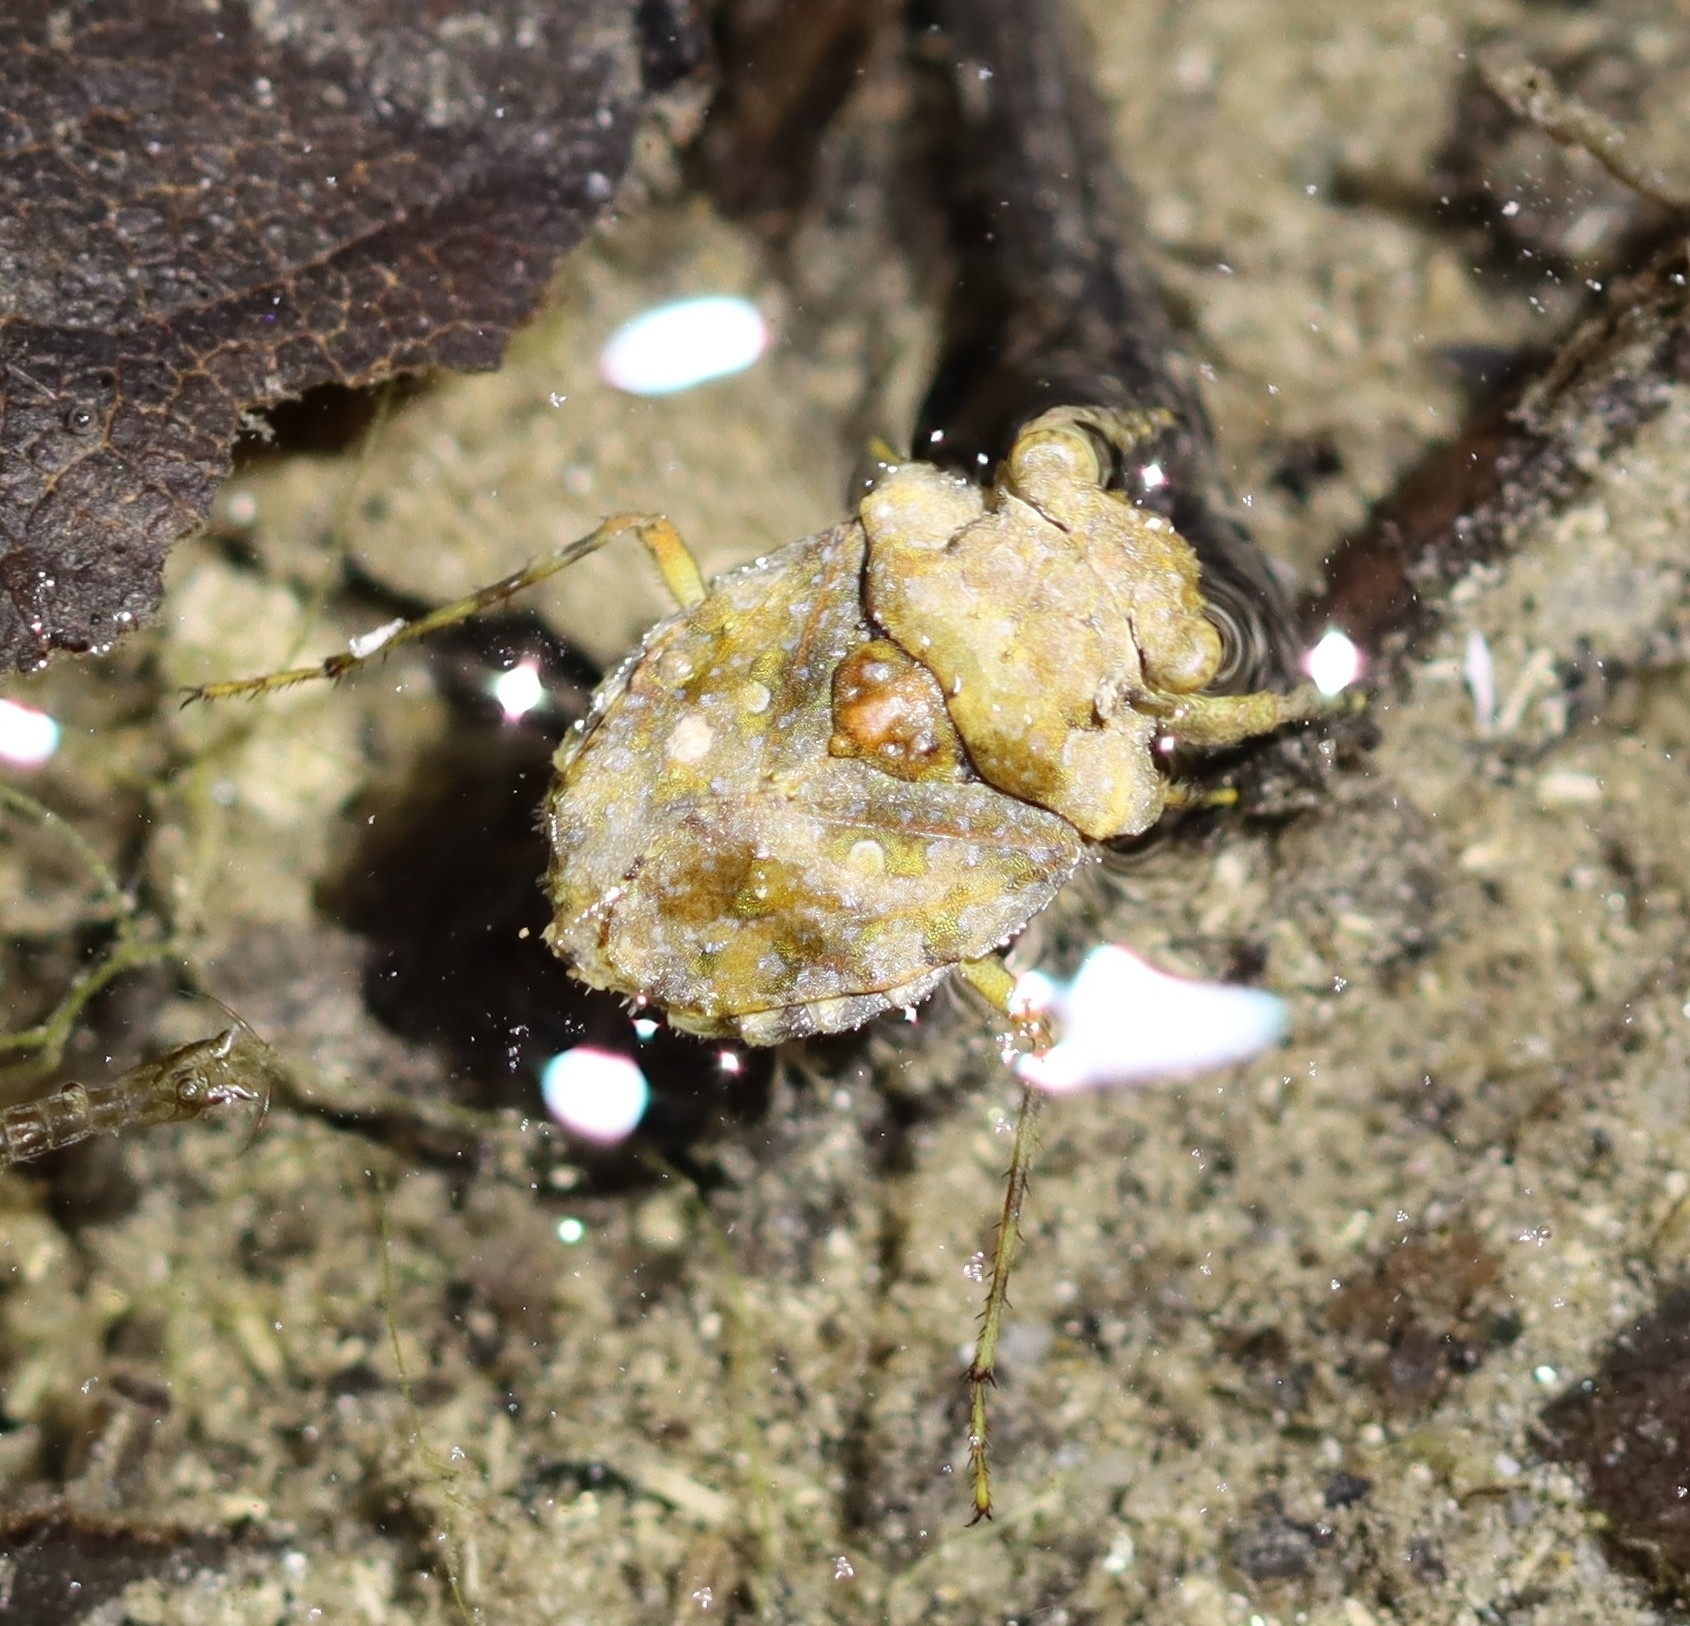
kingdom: Animalia
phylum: Arthropoda
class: Insecta
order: Hemiptera
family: Gelastocoridae
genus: Gelastocoris
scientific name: Gelastocoris oculatus
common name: Toad bug
